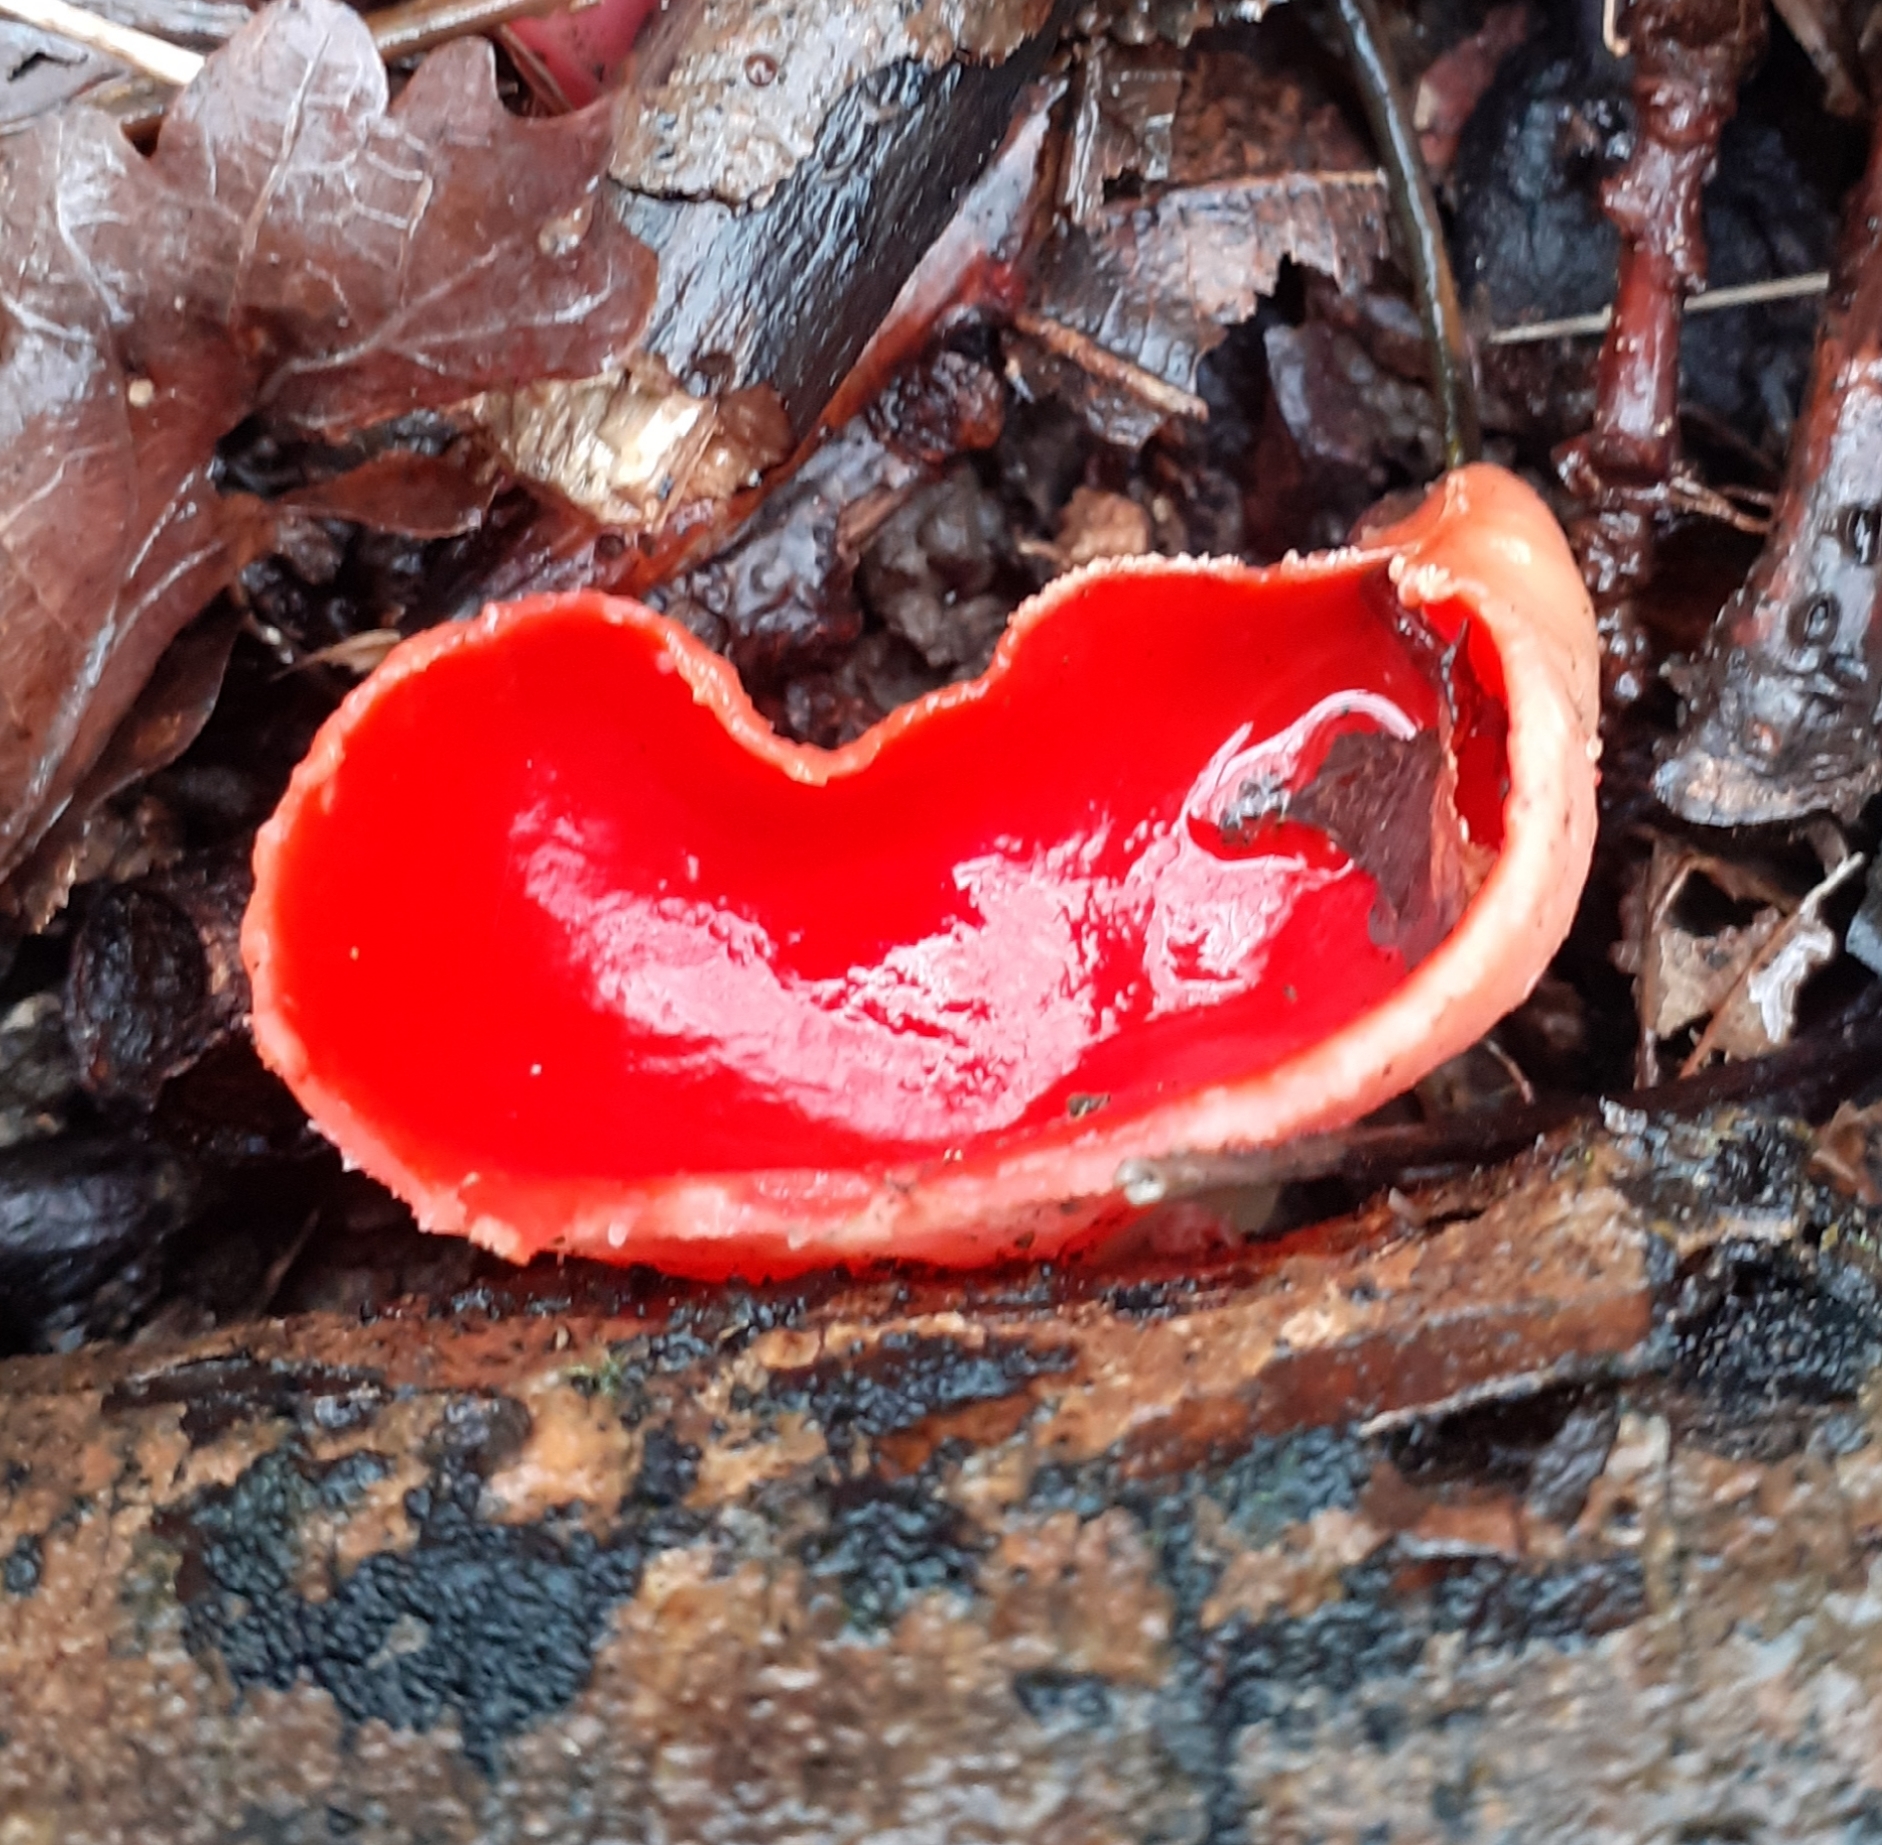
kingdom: Fungi
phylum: Ascomycota
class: Pezizomycetes
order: Pezizales
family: Sarcoscyphaceae
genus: Sarcoscypha
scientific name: Sarcoscypha
